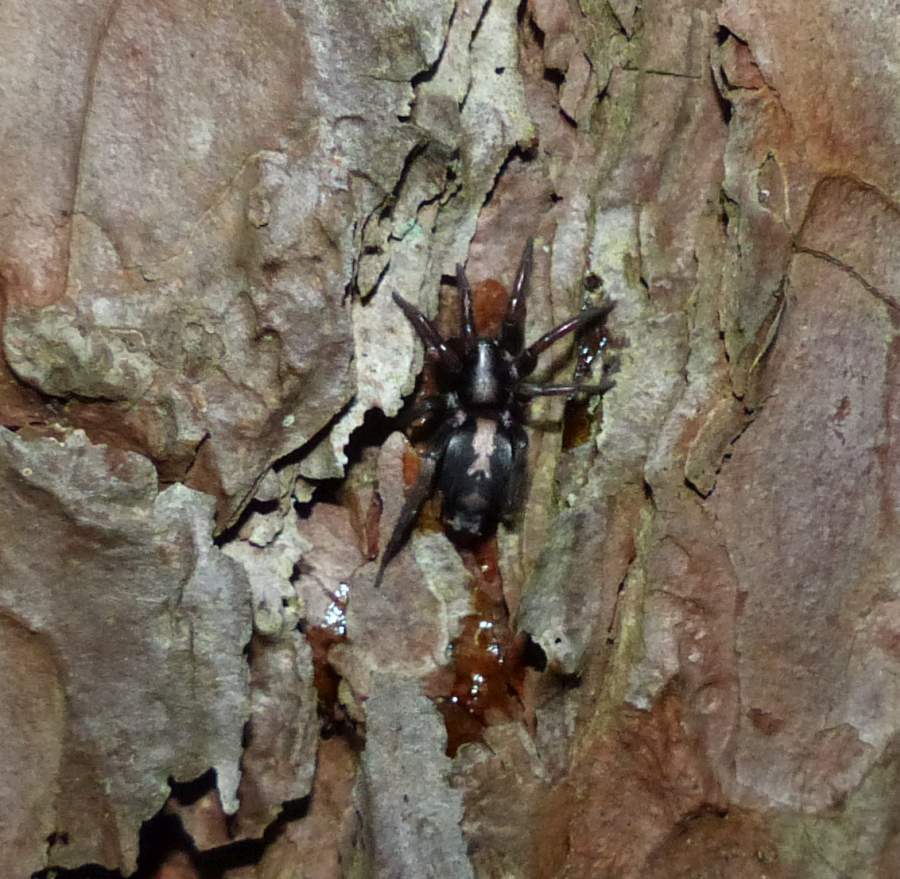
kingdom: Animalia
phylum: Arthropoda
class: Arachnida
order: Araneae
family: Gnaphosidae
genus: Herpyllus
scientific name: Herpyllus ecclesiasticus
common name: Eastern parson spider
